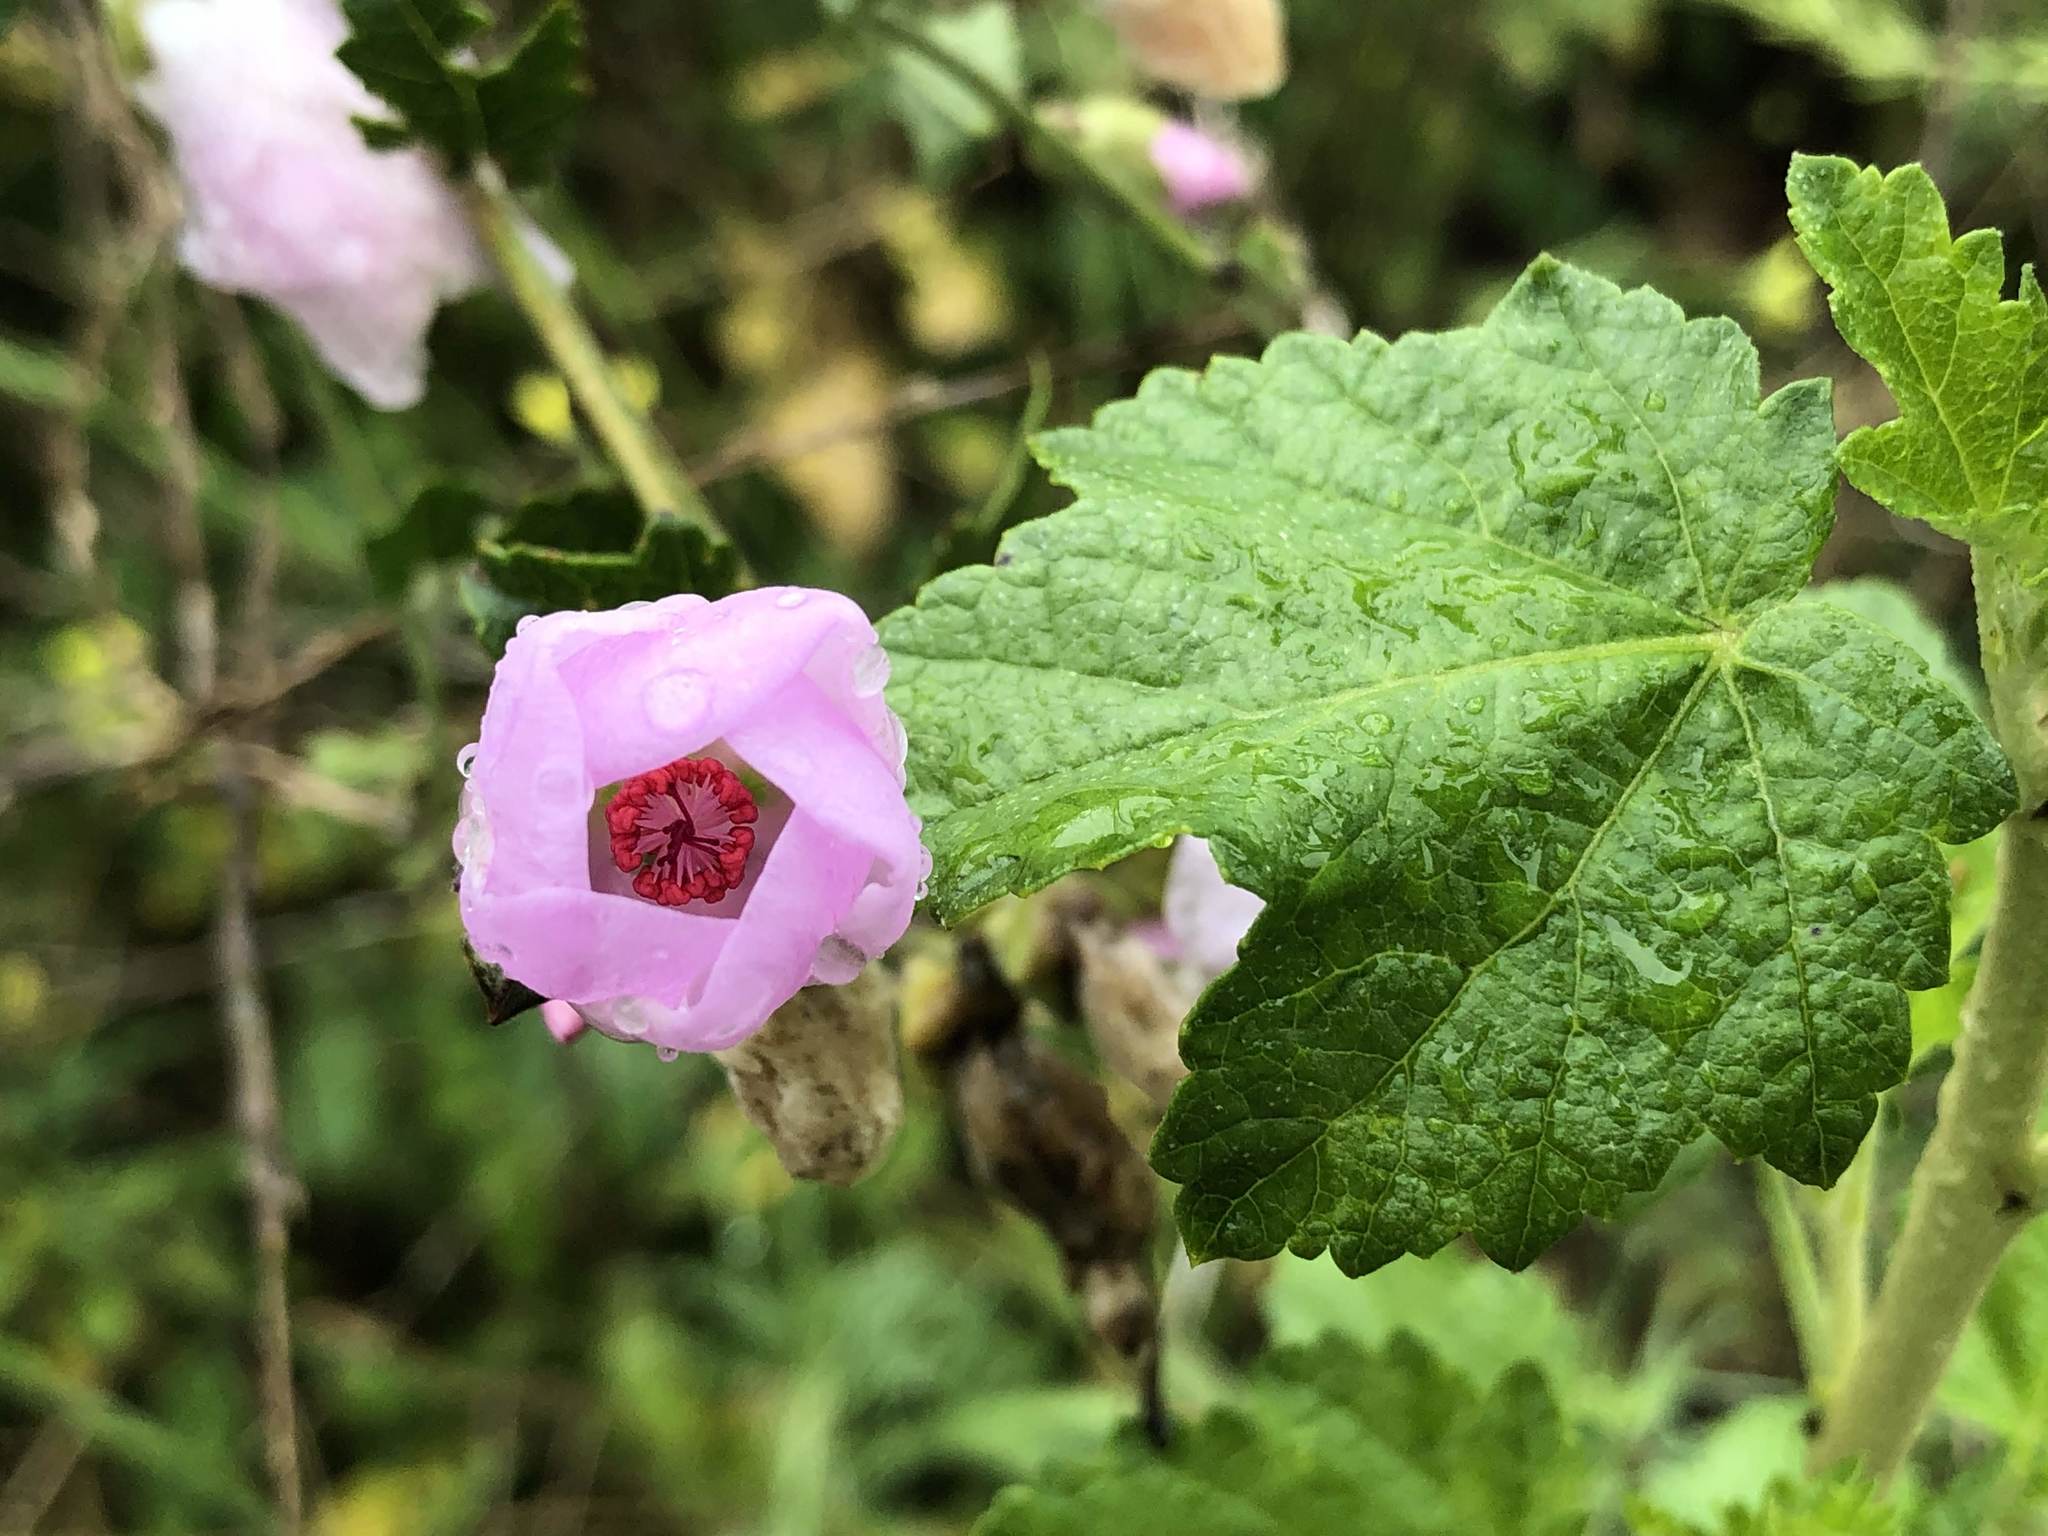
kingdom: Plantae
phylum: Tracheophyta
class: Magnoliopsida
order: Malvales
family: Malvaceae
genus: Malacothamnus
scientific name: Malacothamnus fasciculatus
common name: Sant cruz island bush-mallow
